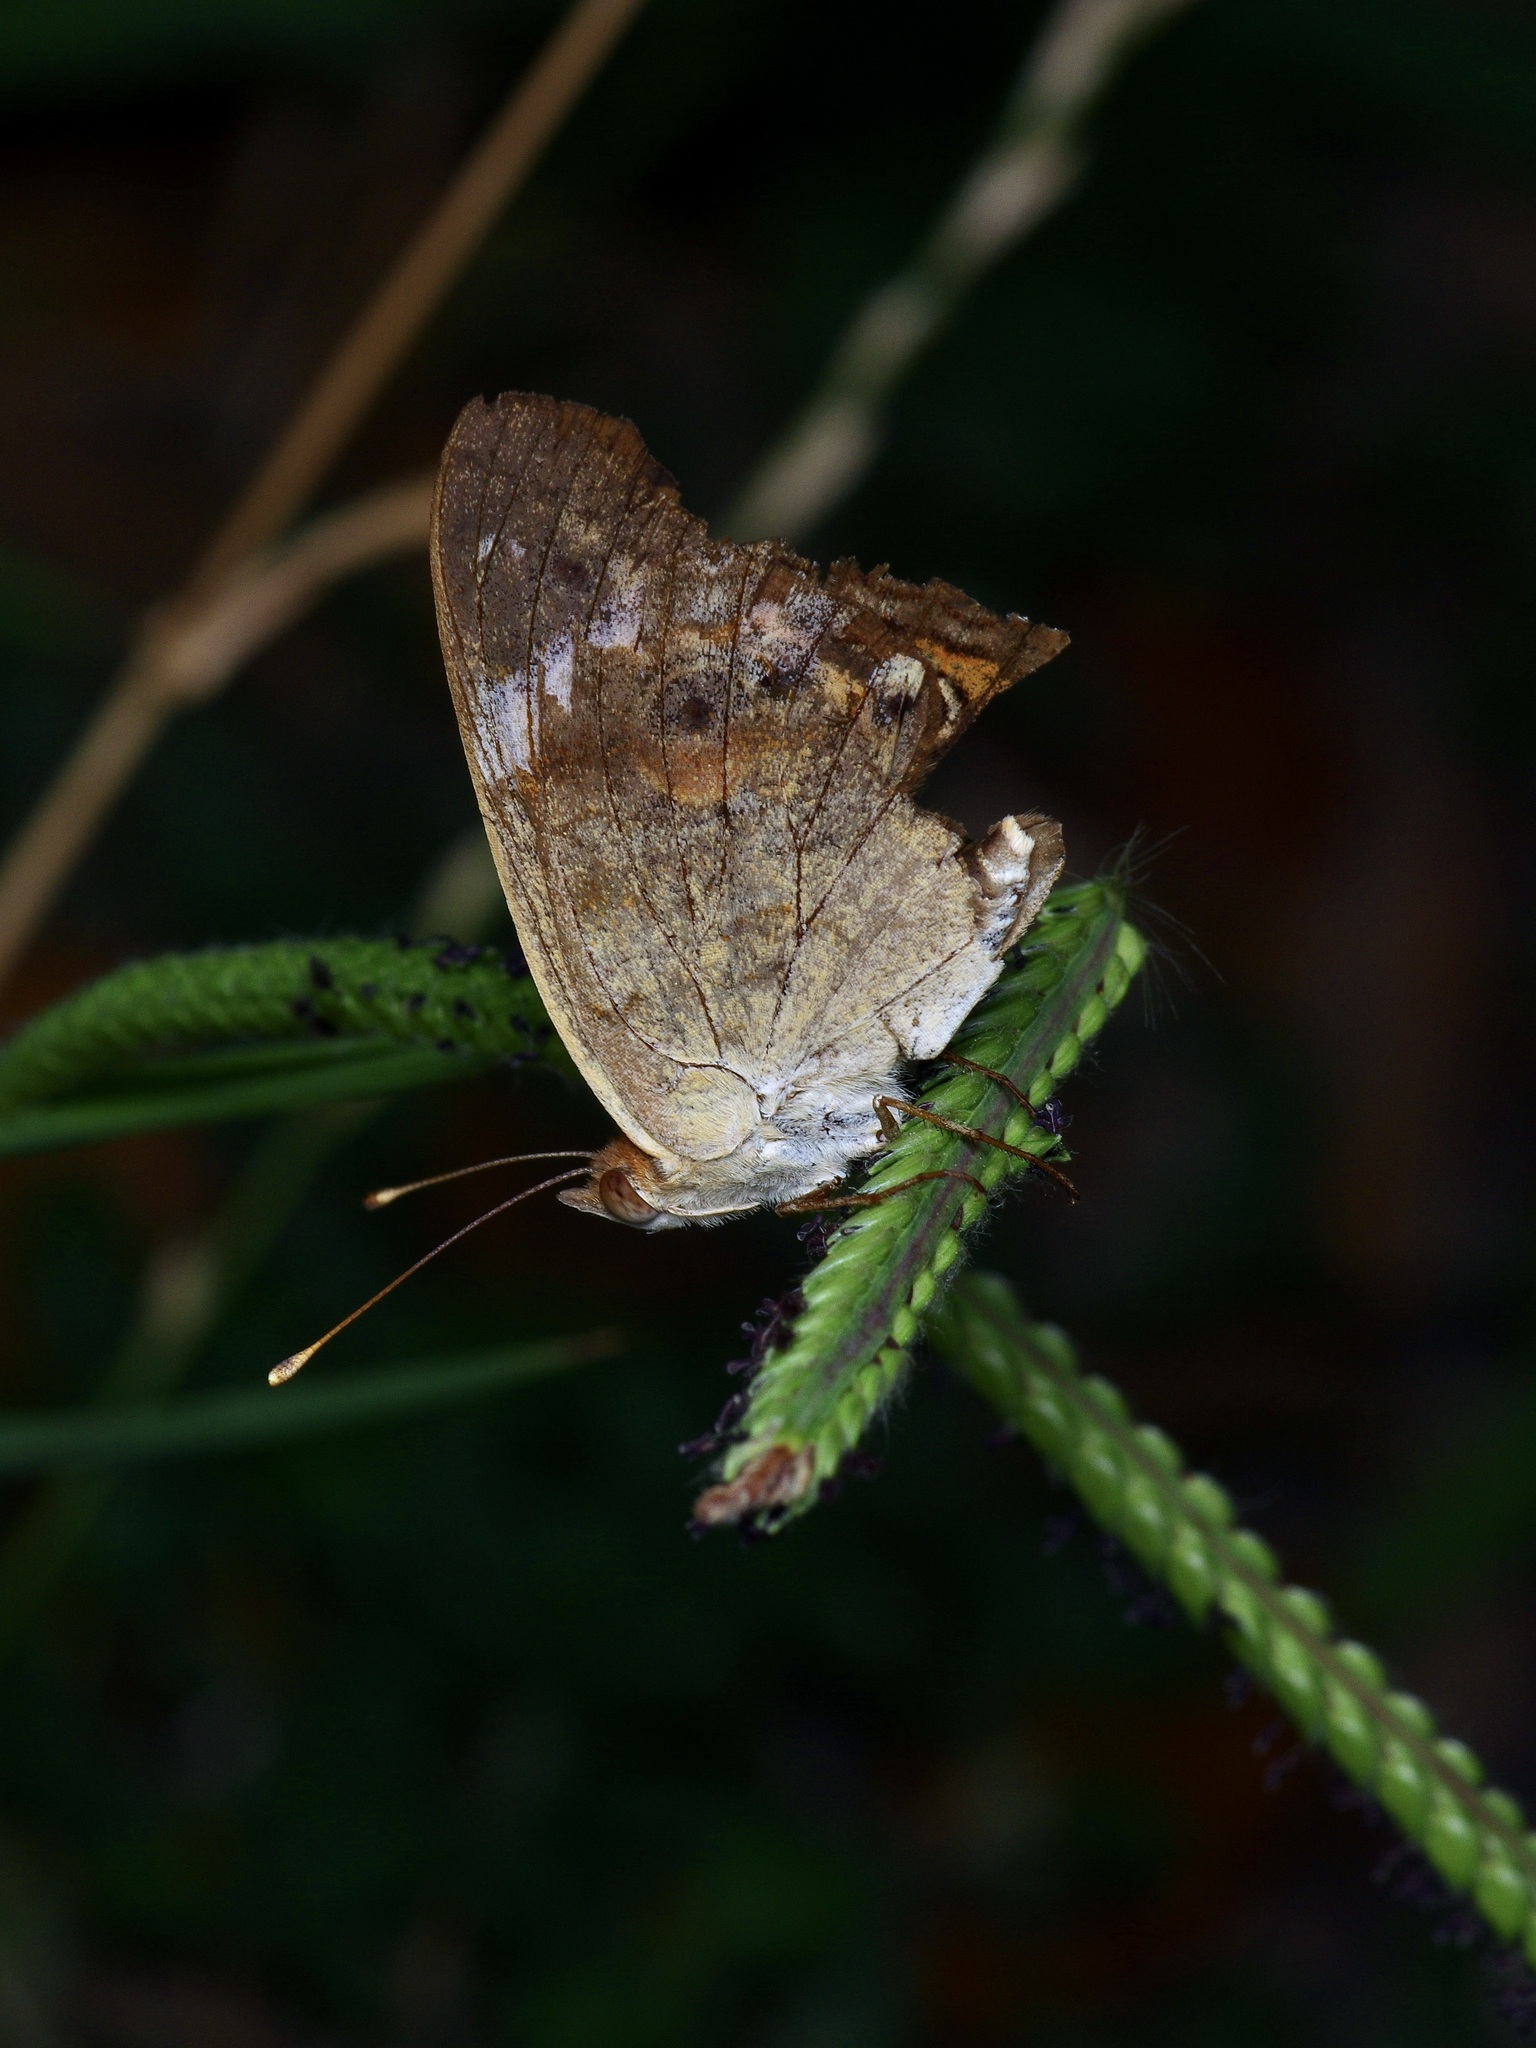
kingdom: Animalia
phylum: Arthropoda
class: Insecta
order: Lepidoptera
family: Nymphalidae
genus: Junonia
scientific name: Junonia coenia
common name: Common buckeye
